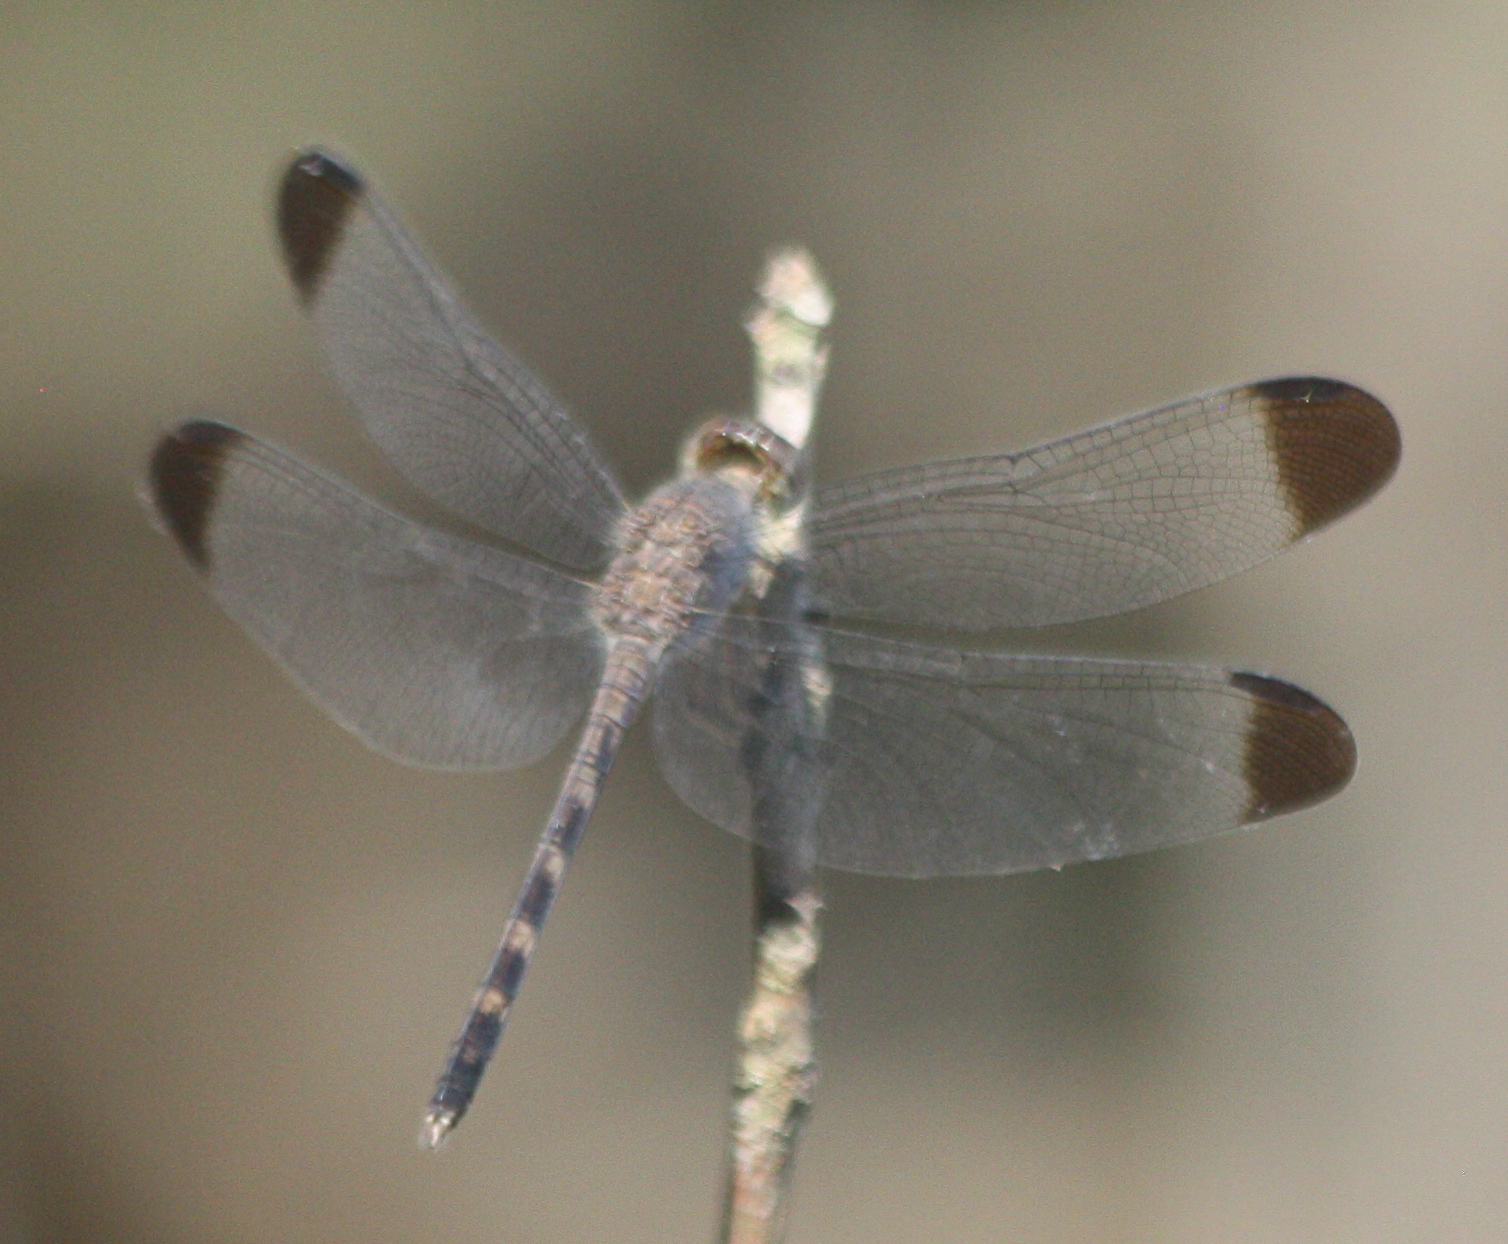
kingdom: Animalia
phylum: Arthropoda
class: Insecta
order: Odonata
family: Libellulidae
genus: Uracis
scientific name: Uracis imbuta
